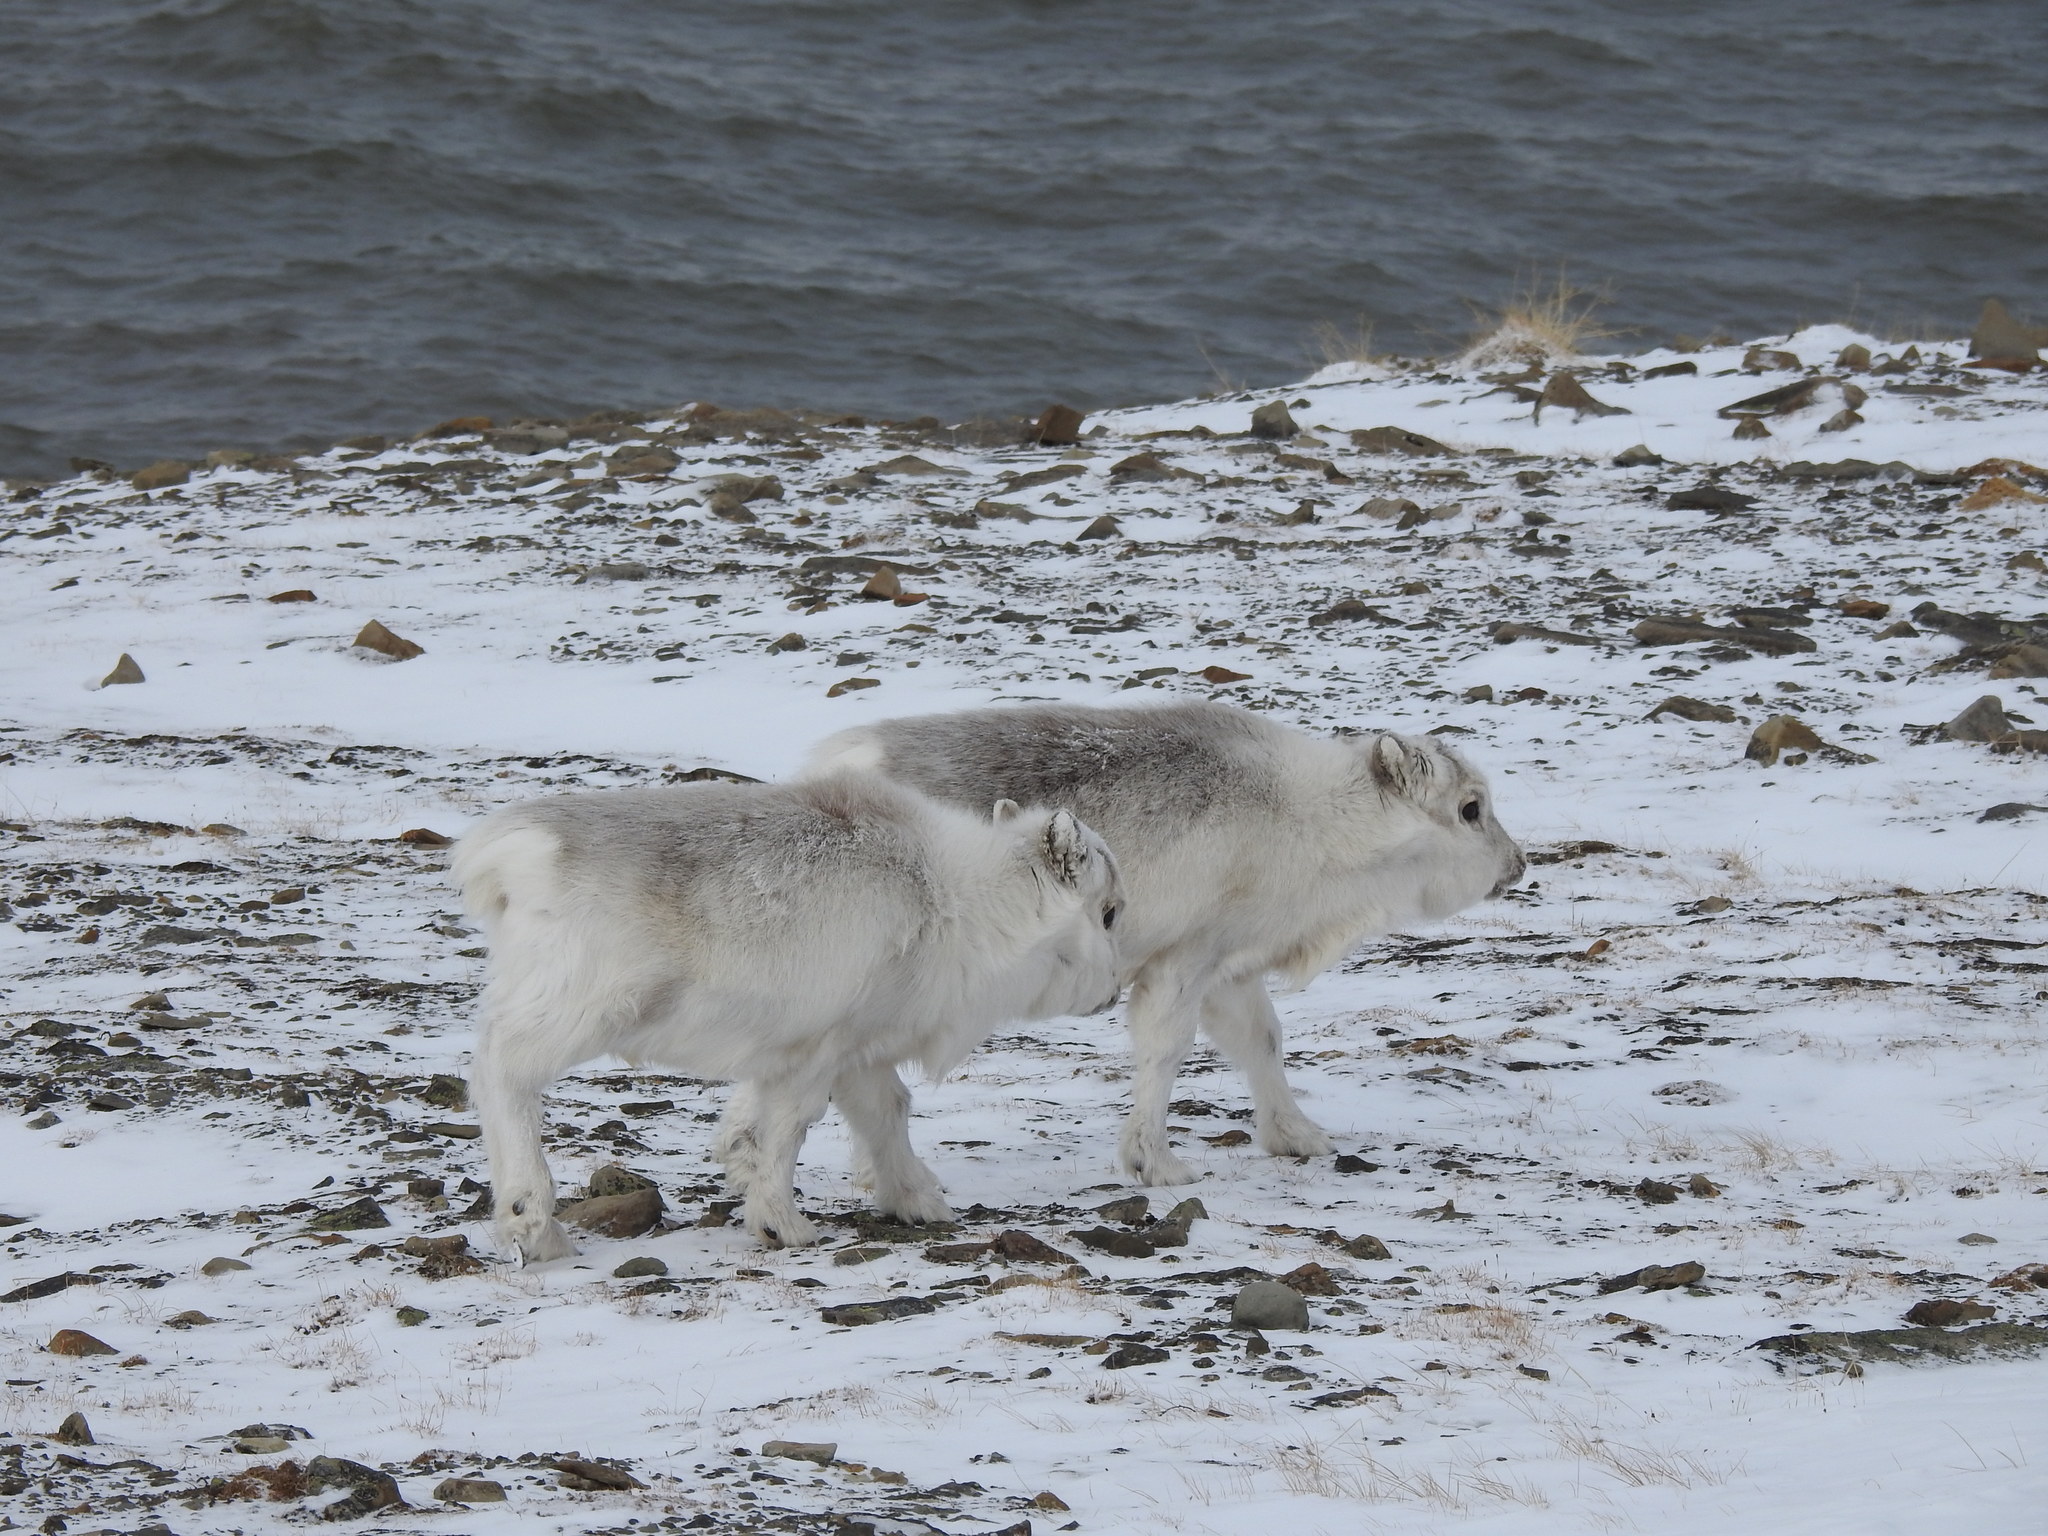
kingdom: Animalia
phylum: Chordata
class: Mammalia
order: Artiodactyla
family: Cervidae
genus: Rangifer
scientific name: Rangifer tarandus
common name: Reindeer
